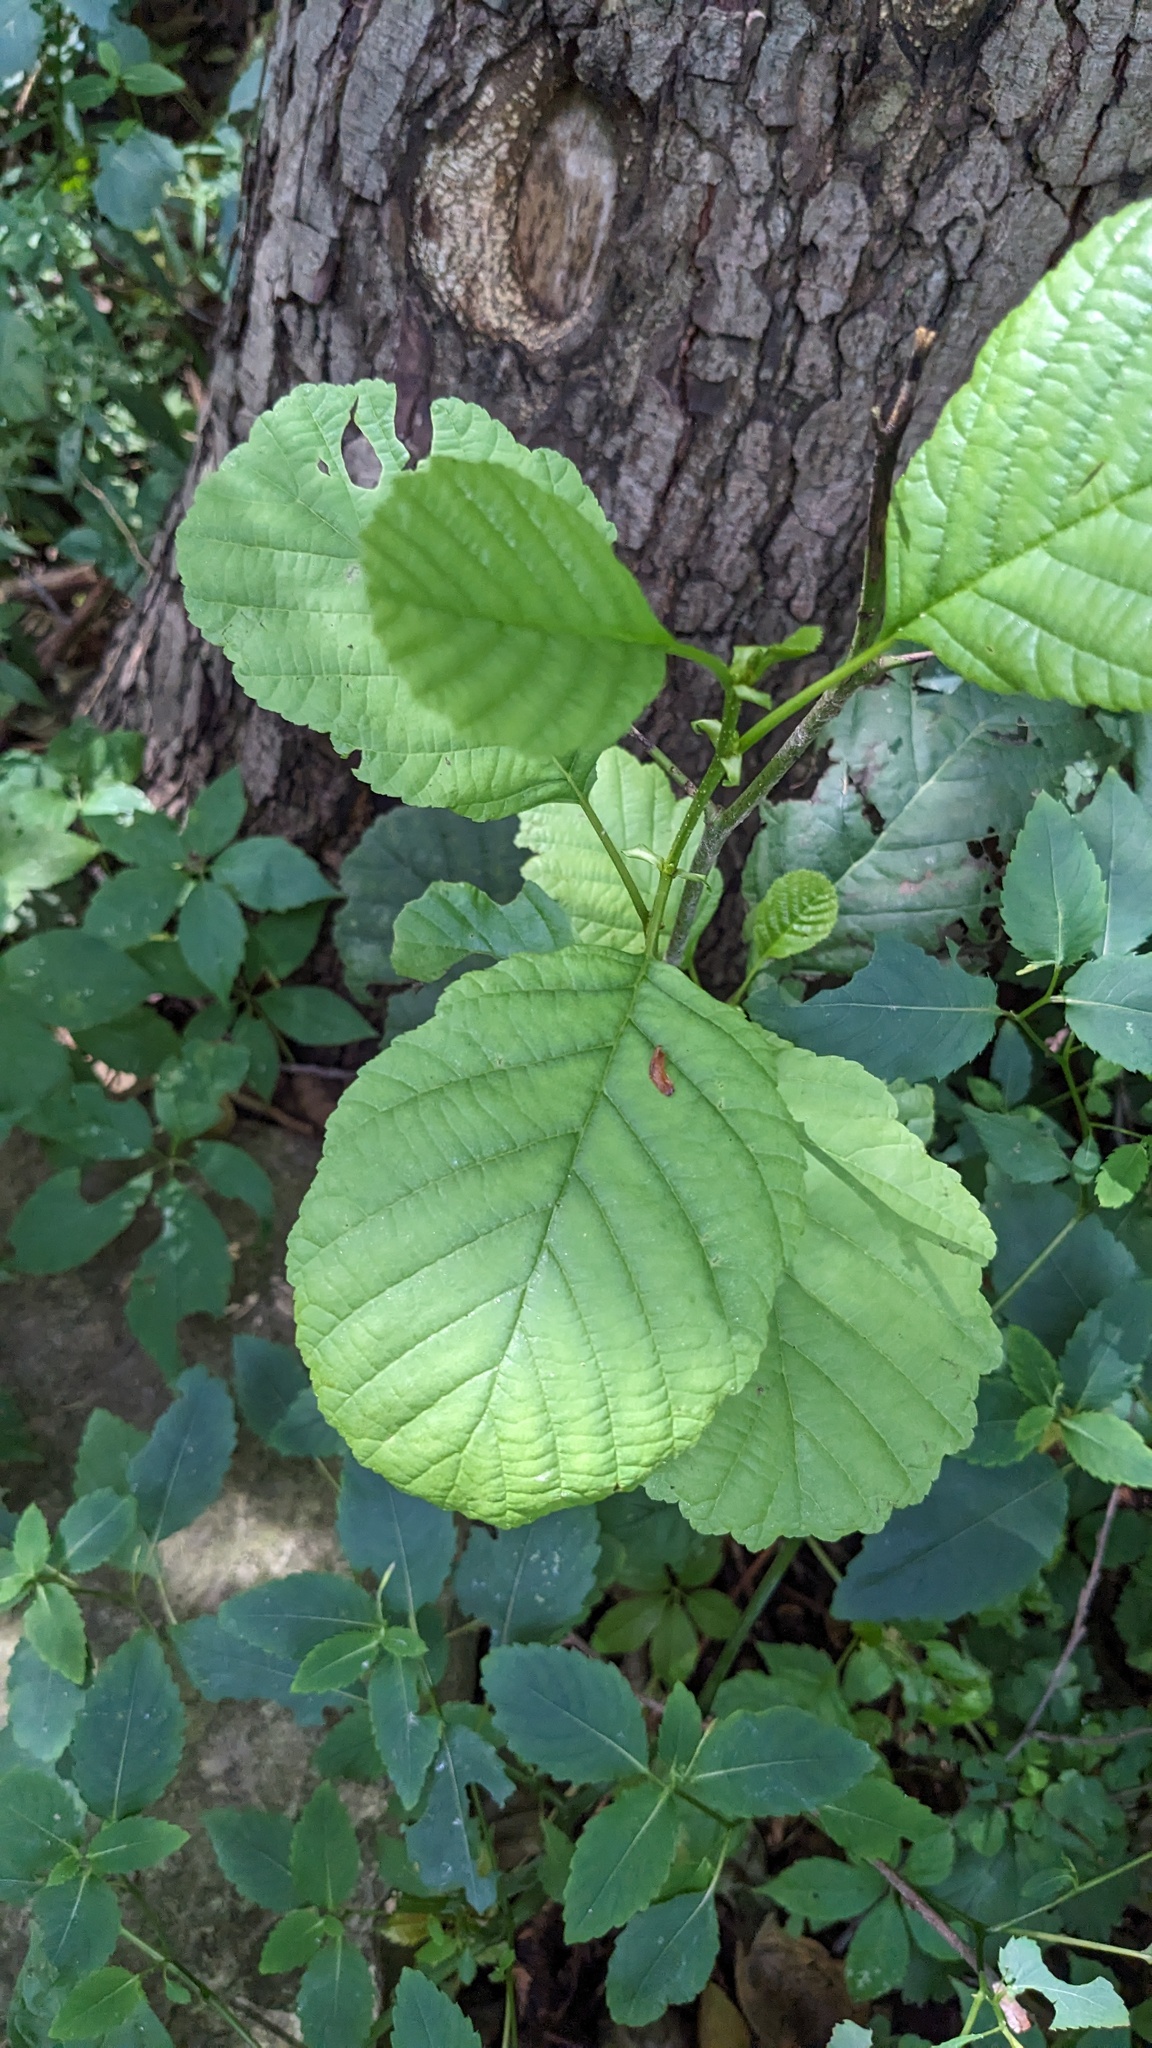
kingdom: Plantae
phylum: Tracheophyta
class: Magnoliopsida
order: Fagales
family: Betulaceae
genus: Alnus
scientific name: Alnus glutinosa
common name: Black alder
